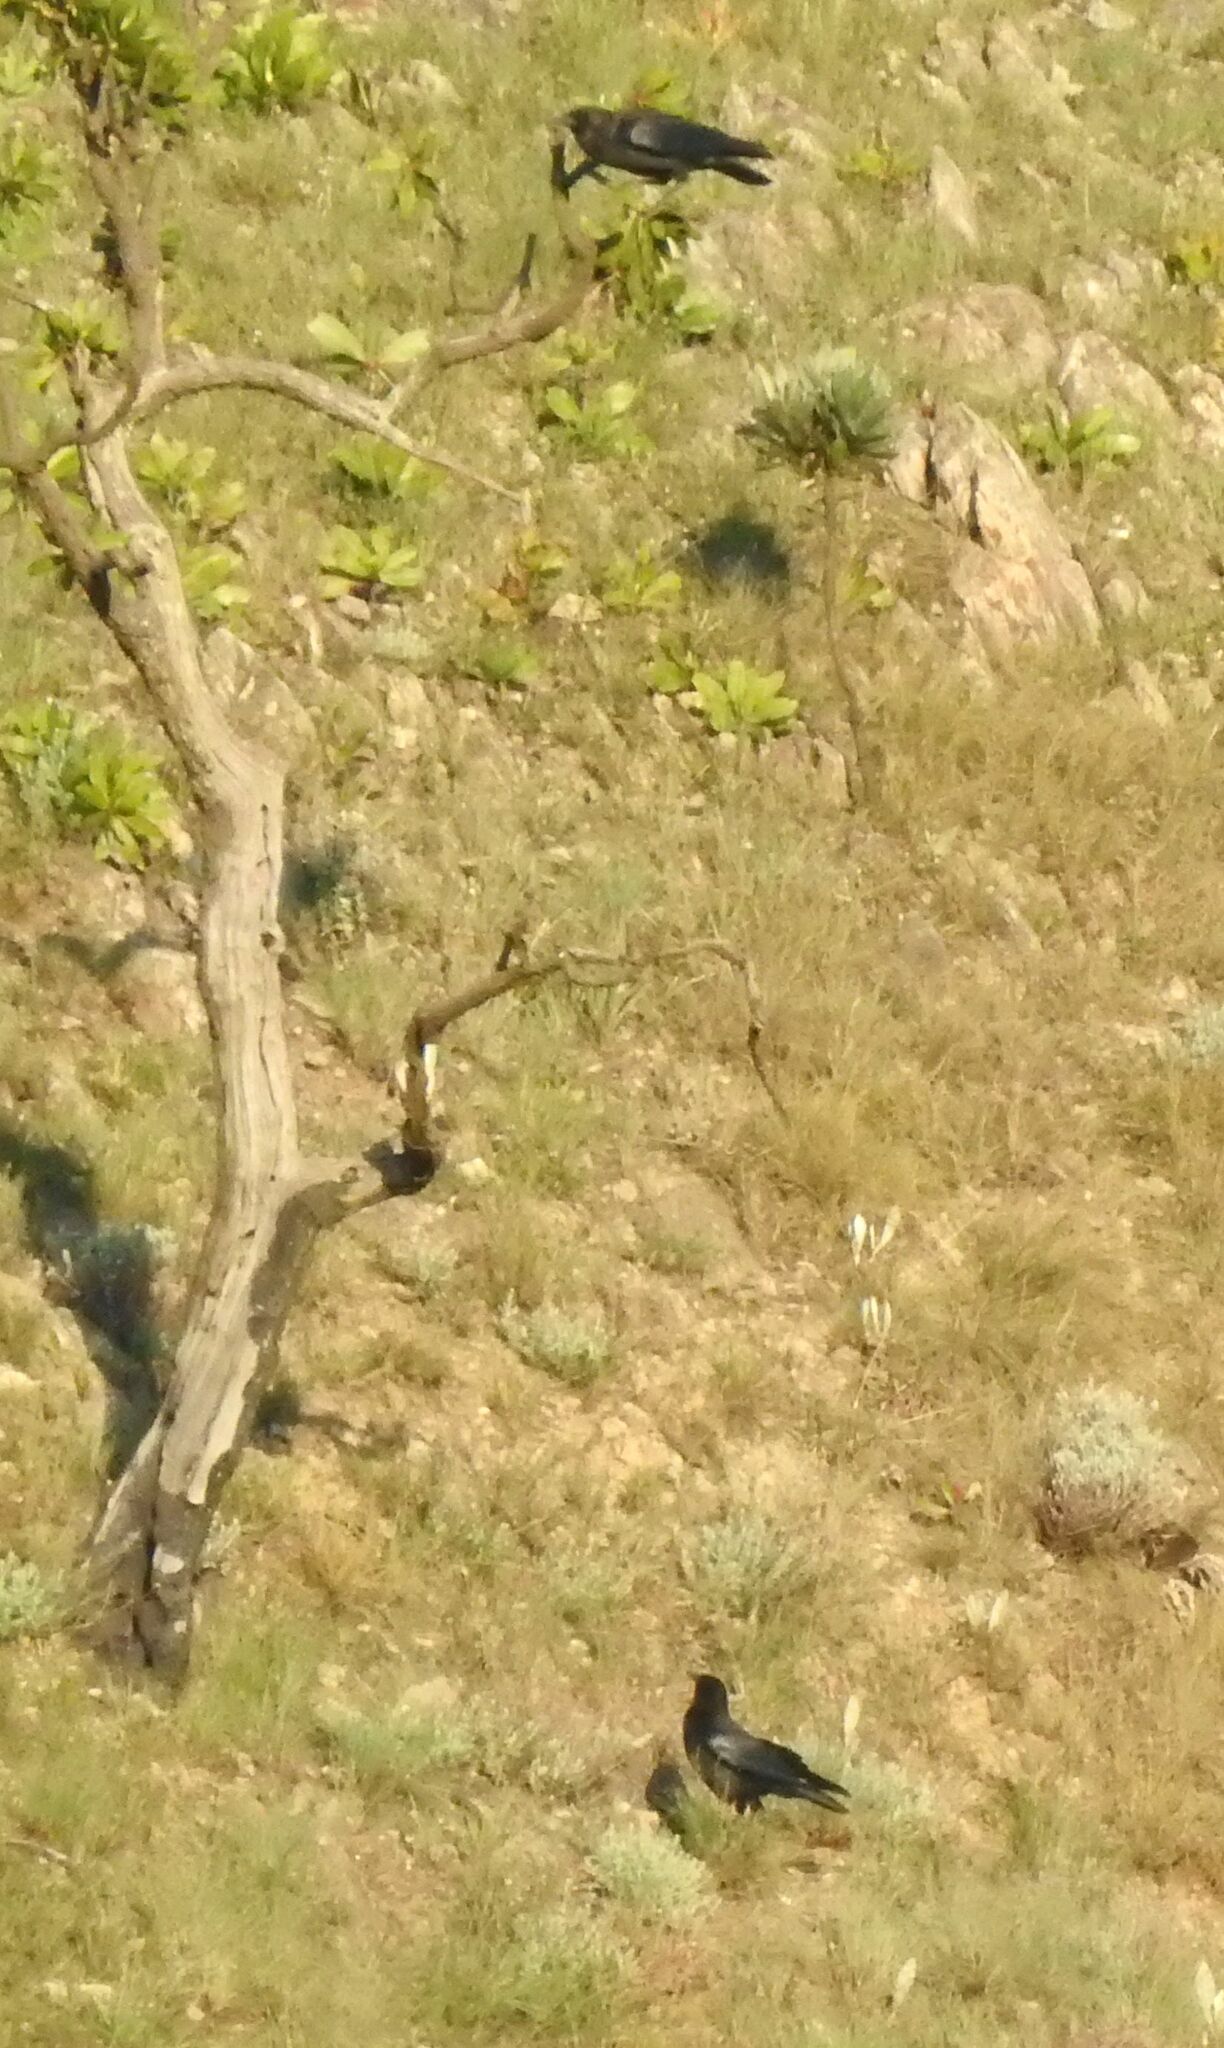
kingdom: Animalia
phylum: Chordata
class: Aves
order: Passeriformes
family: Corvidae
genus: Corvus
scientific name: Corvus capensis
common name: Cape crow
